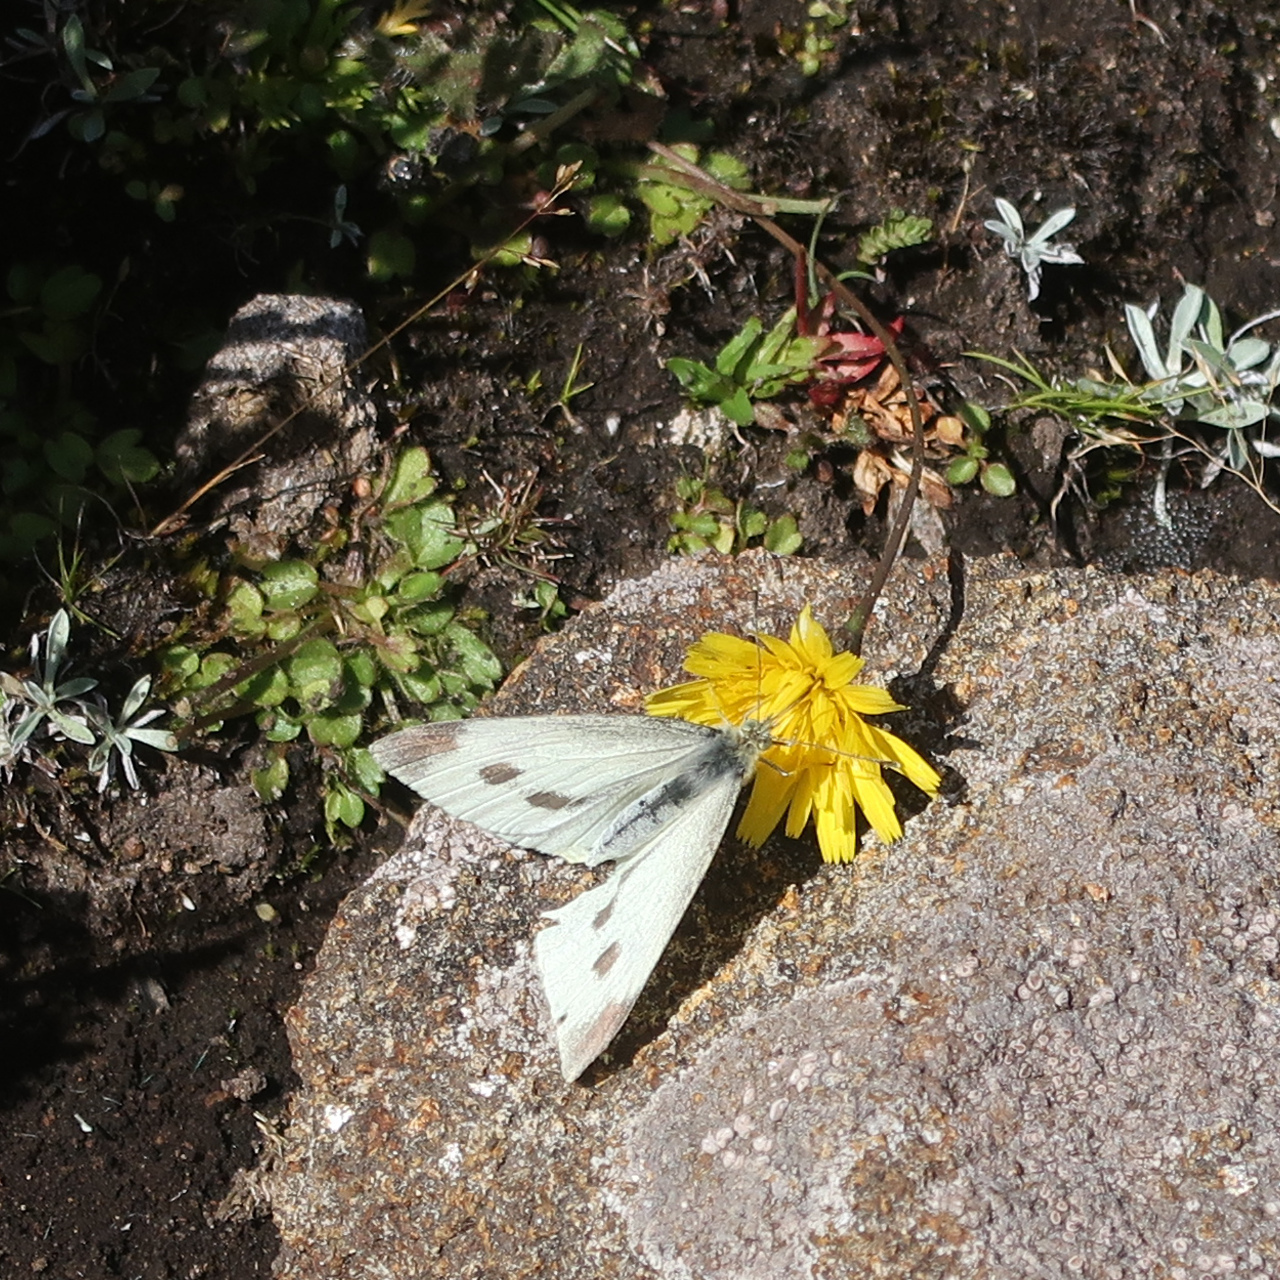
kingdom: Animalia
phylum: Arthropoda
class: Insecta
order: Lepidoptera
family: Pieridae
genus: Pieris
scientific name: Pieris rapae
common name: Small white
